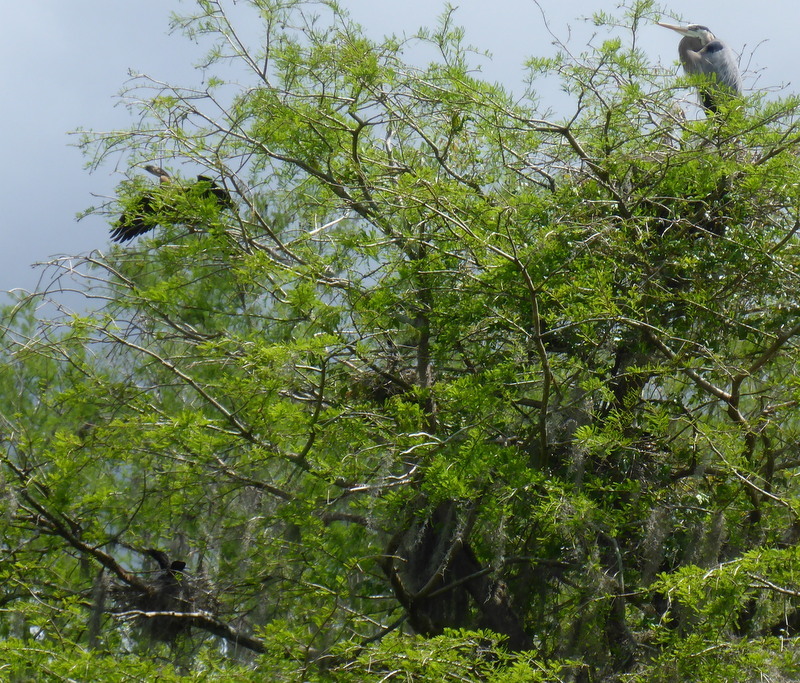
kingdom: Animalia
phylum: Chordata
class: Aves
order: Suliformes
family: Anhingidae
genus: Anhinga
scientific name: Anhinga anhinga
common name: Anhinga
